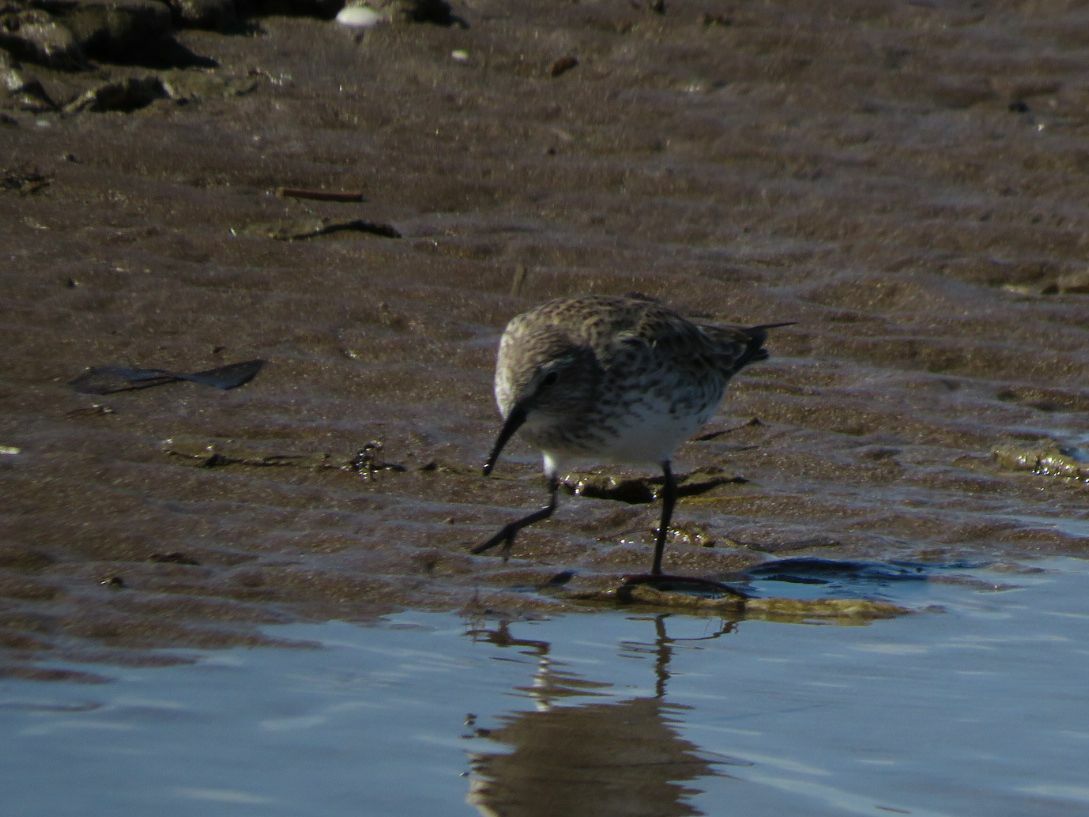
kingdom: Animalia
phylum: Chordata
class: Aves
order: Charadriiformes
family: Scolopacidae
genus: Calidris
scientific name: Calidris fuscicollis
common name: White-rumped sandpiper
